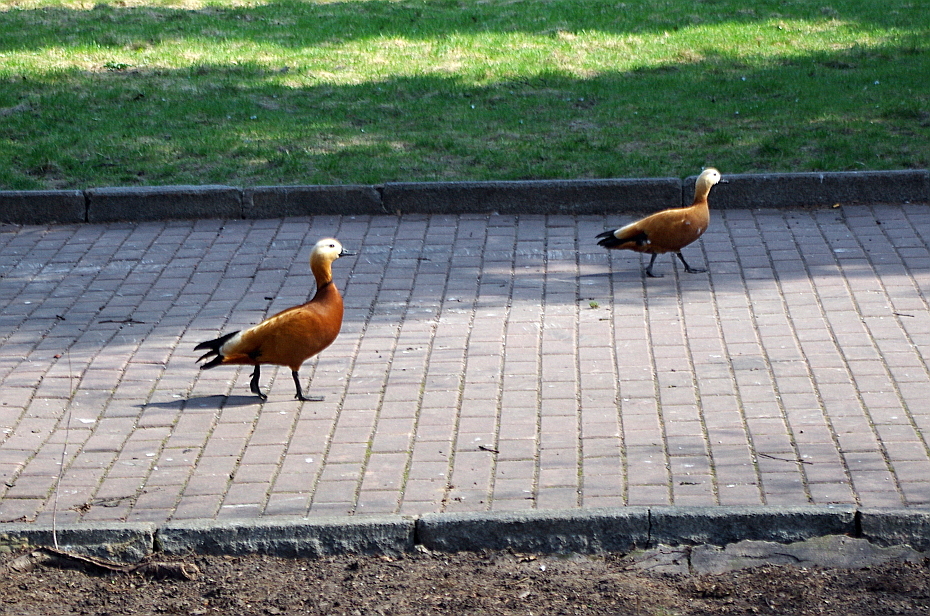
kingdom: Animalia
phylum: Chordata
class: Aves
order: Anseriformes
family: Anatidae
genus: Tadorna
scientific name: Tadorna ferruginea
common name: Ruddy shelduck
